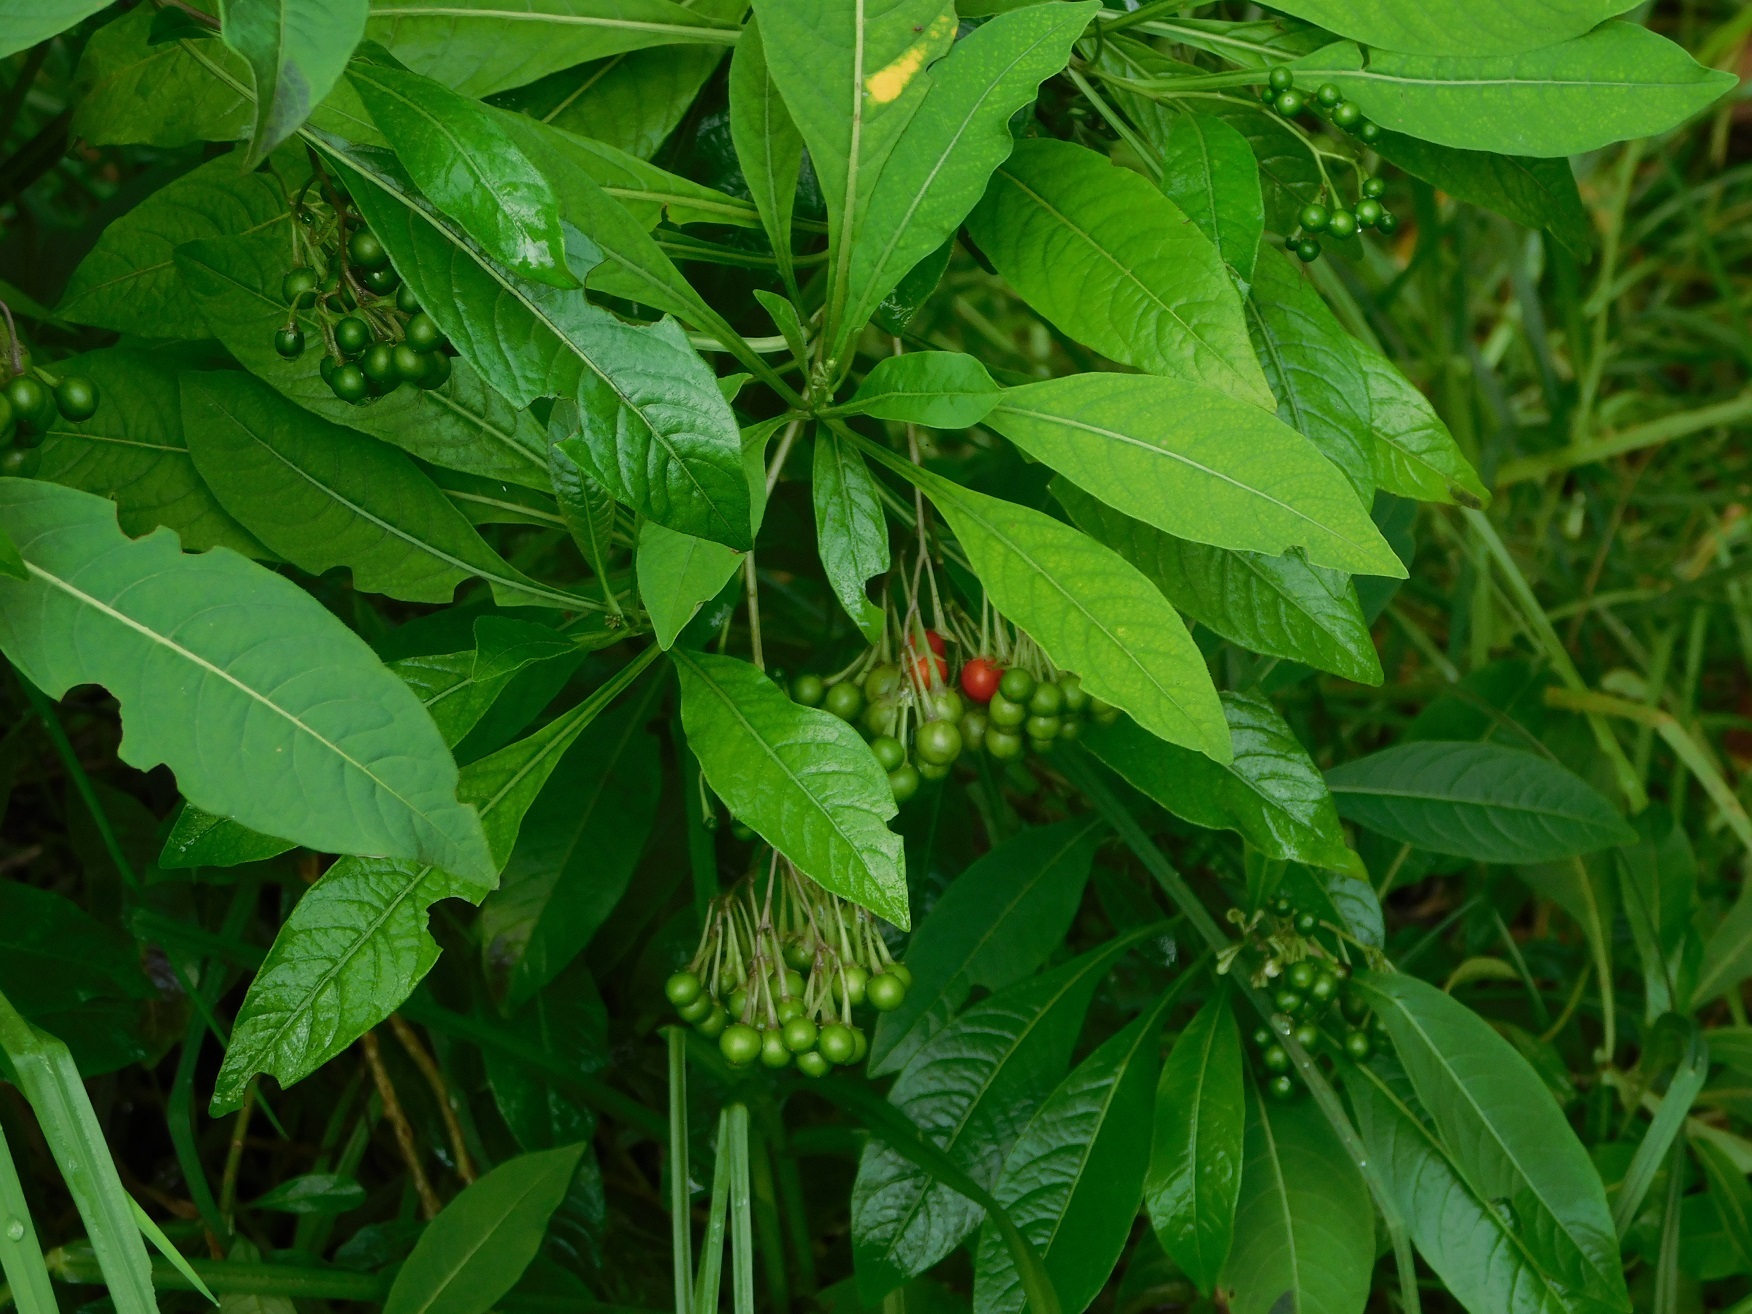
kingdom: Plantae
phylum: Tracheophyta
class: Magnoliopsida
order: Solanales
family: Solanaceae
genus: Solanum
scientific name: Solanum pubigerum
